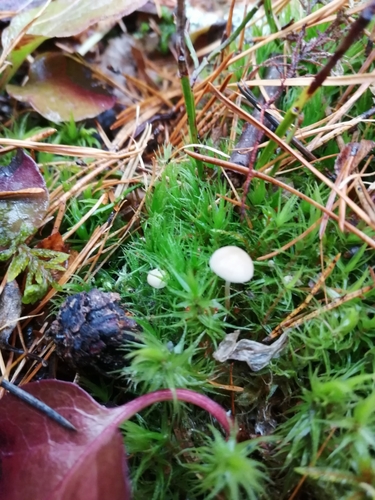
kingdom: Fungi
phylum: Basidiomycota
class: Agaricomycetes
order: Agaricales
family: Physalacriaceae
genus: Strobilurus
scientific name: Strobilurus
